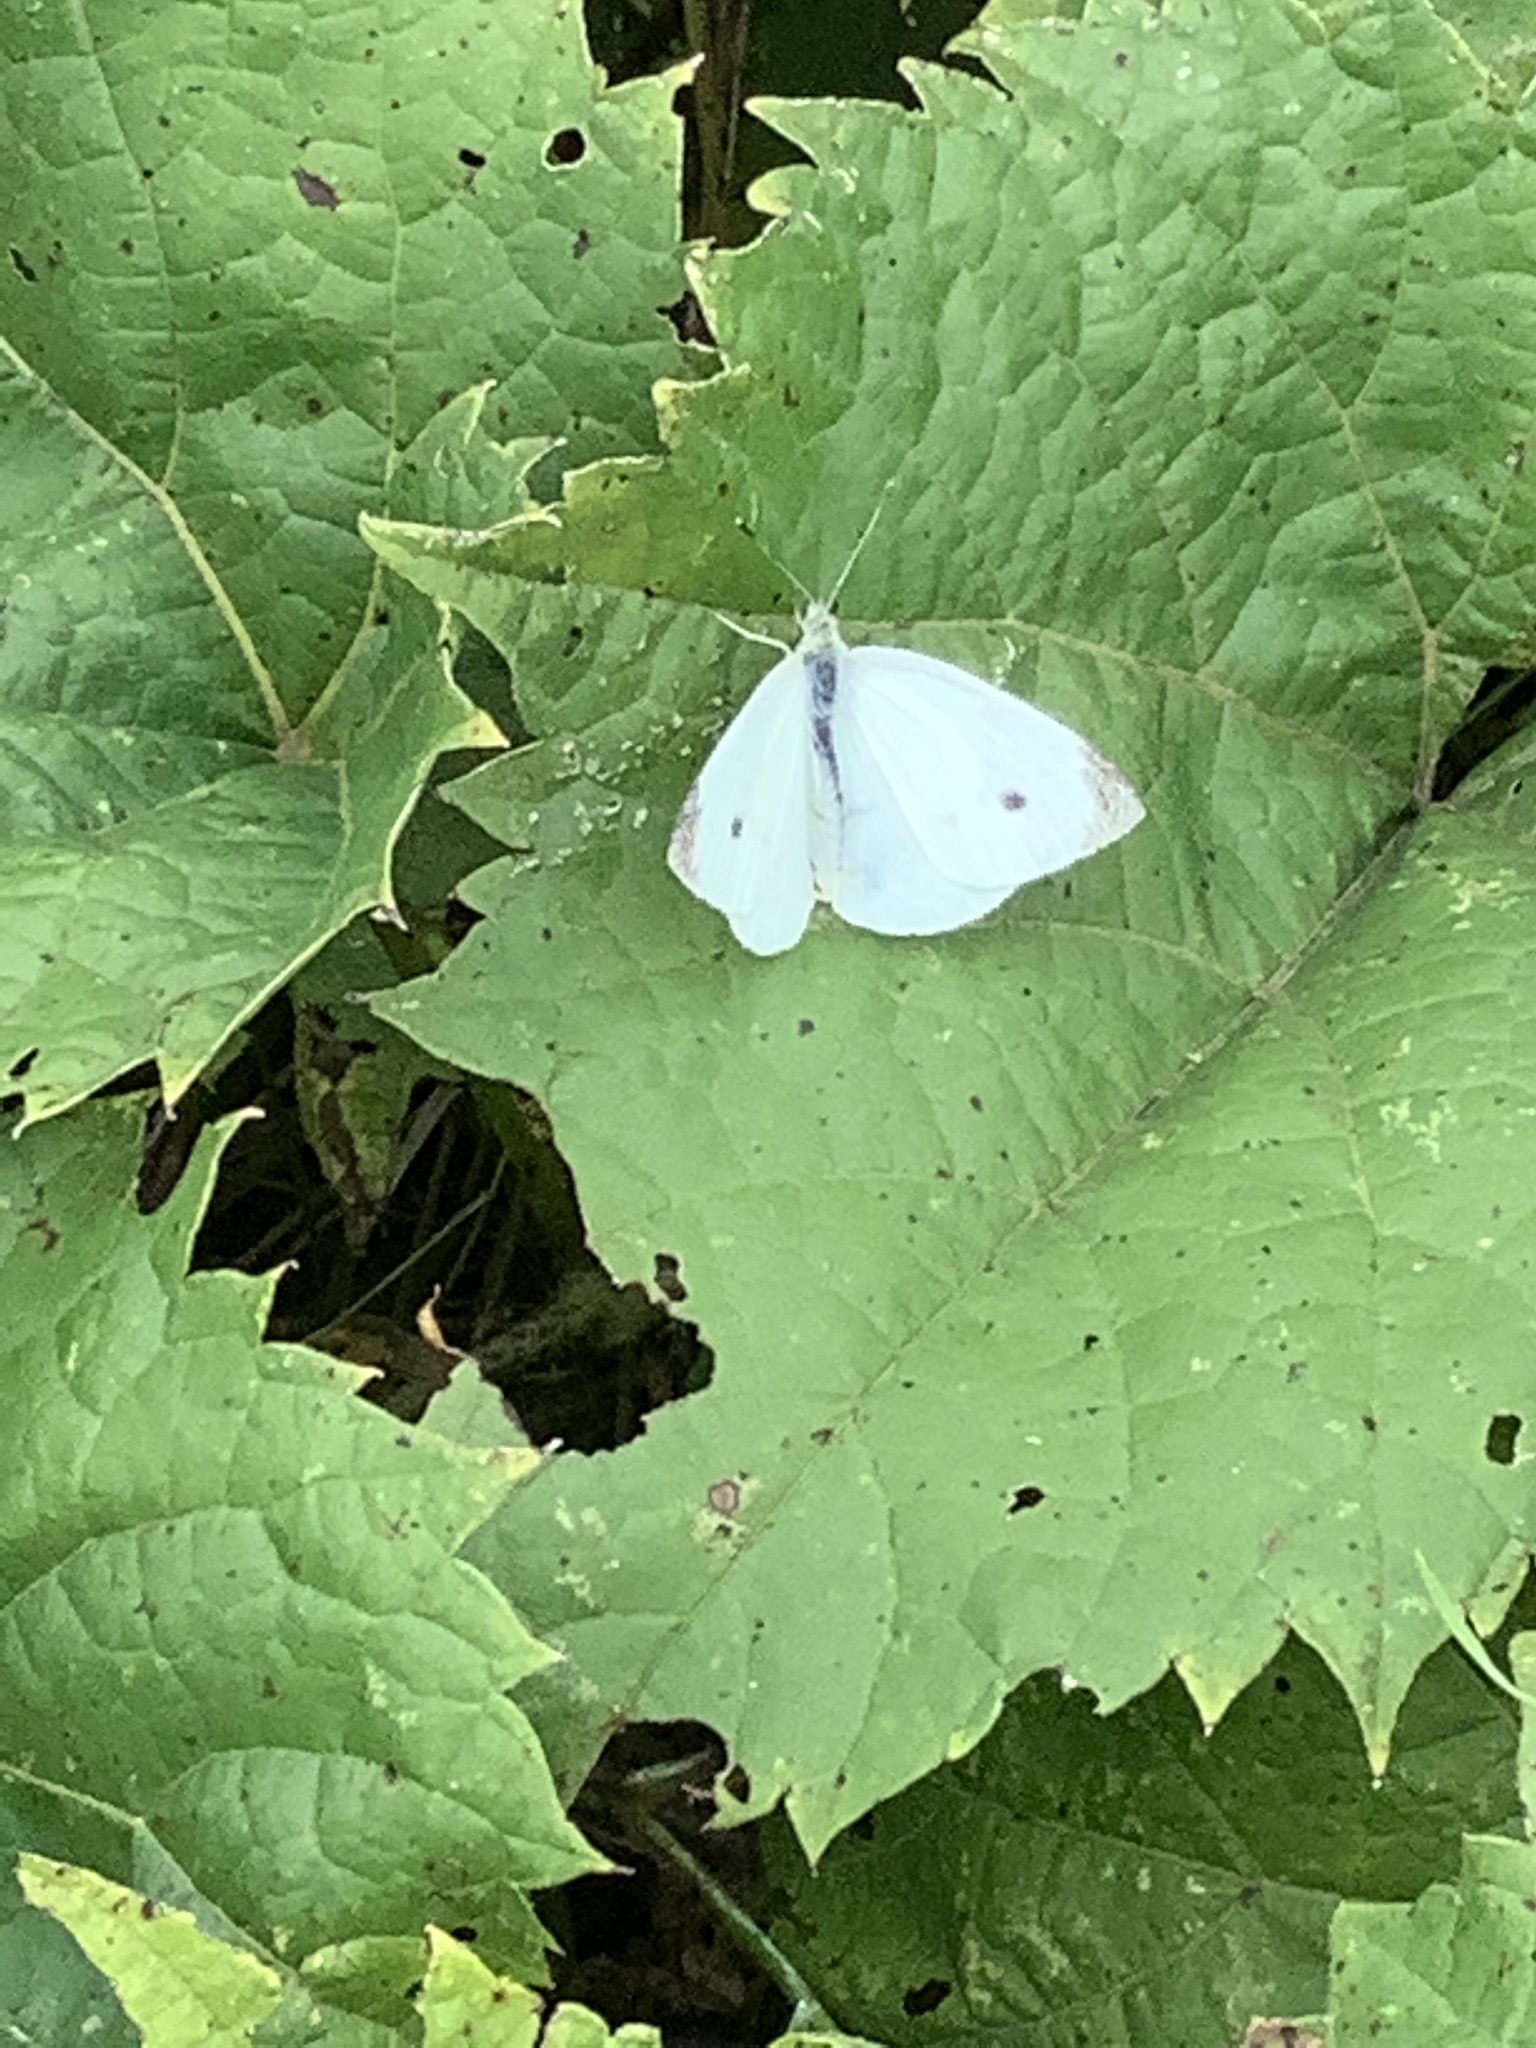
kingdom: Animalia
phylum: Arthropoda
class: Insecta
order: Lepidoptera
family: Pieridae
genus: Pieris
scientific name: Pieris rapae
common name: Small white
